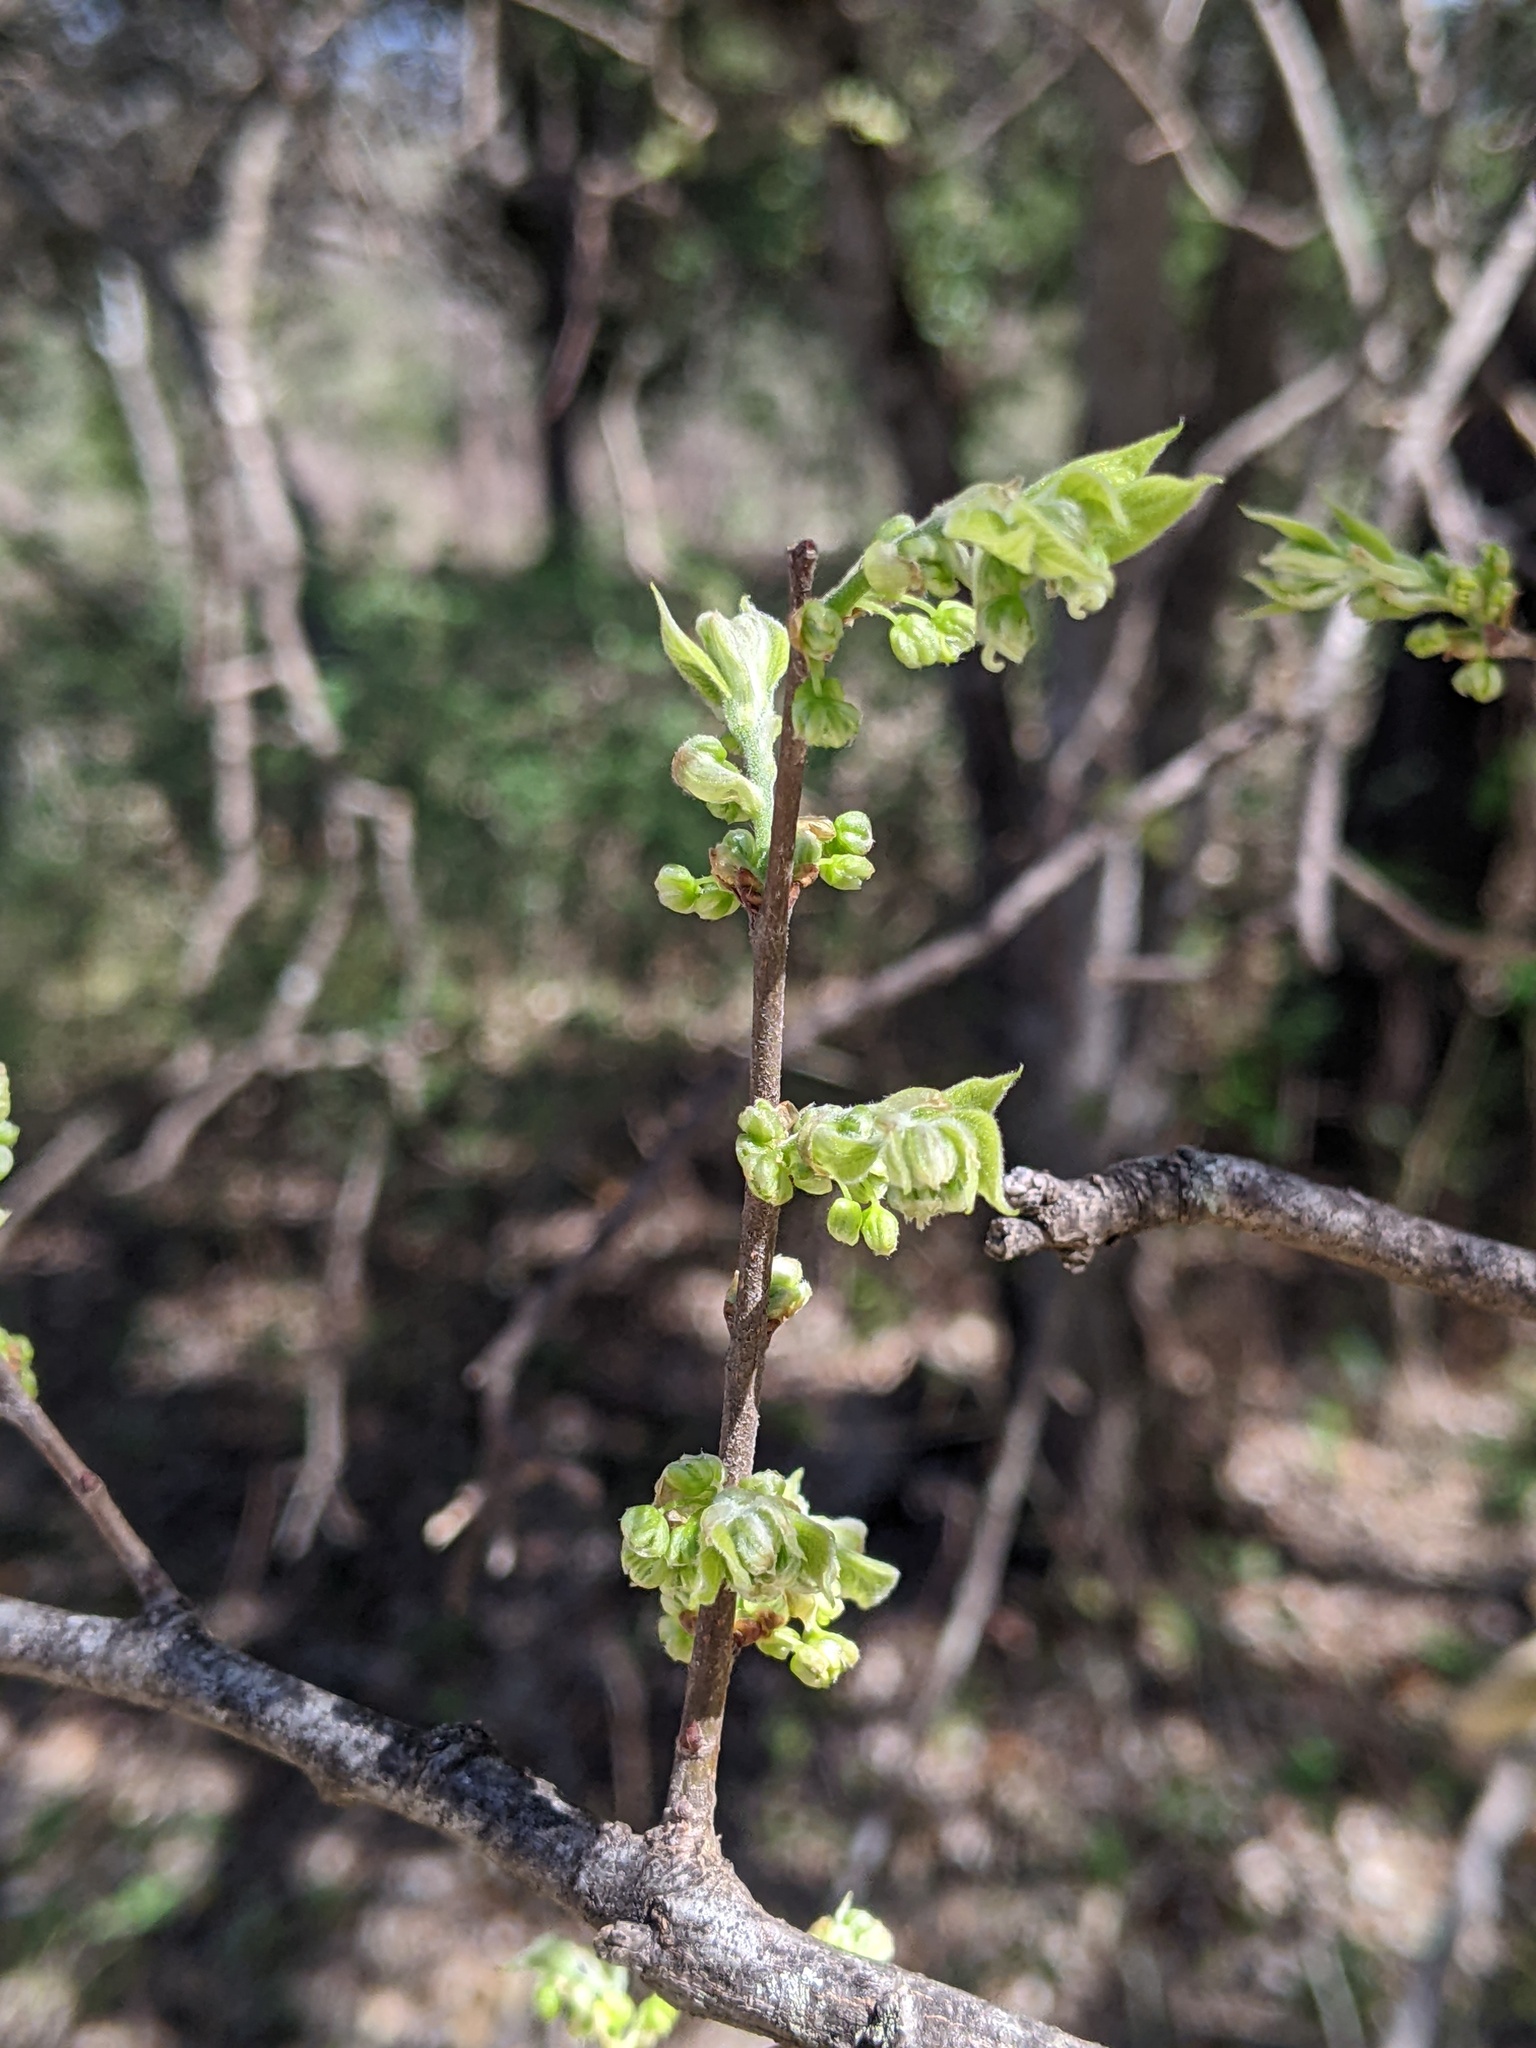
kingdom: Plantae
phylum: Tracheophyta
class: Magnoliopsida
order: Rosales
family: Cannabaceae
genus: Celtis
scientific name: Celtis laevigata
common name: Sugarberry
